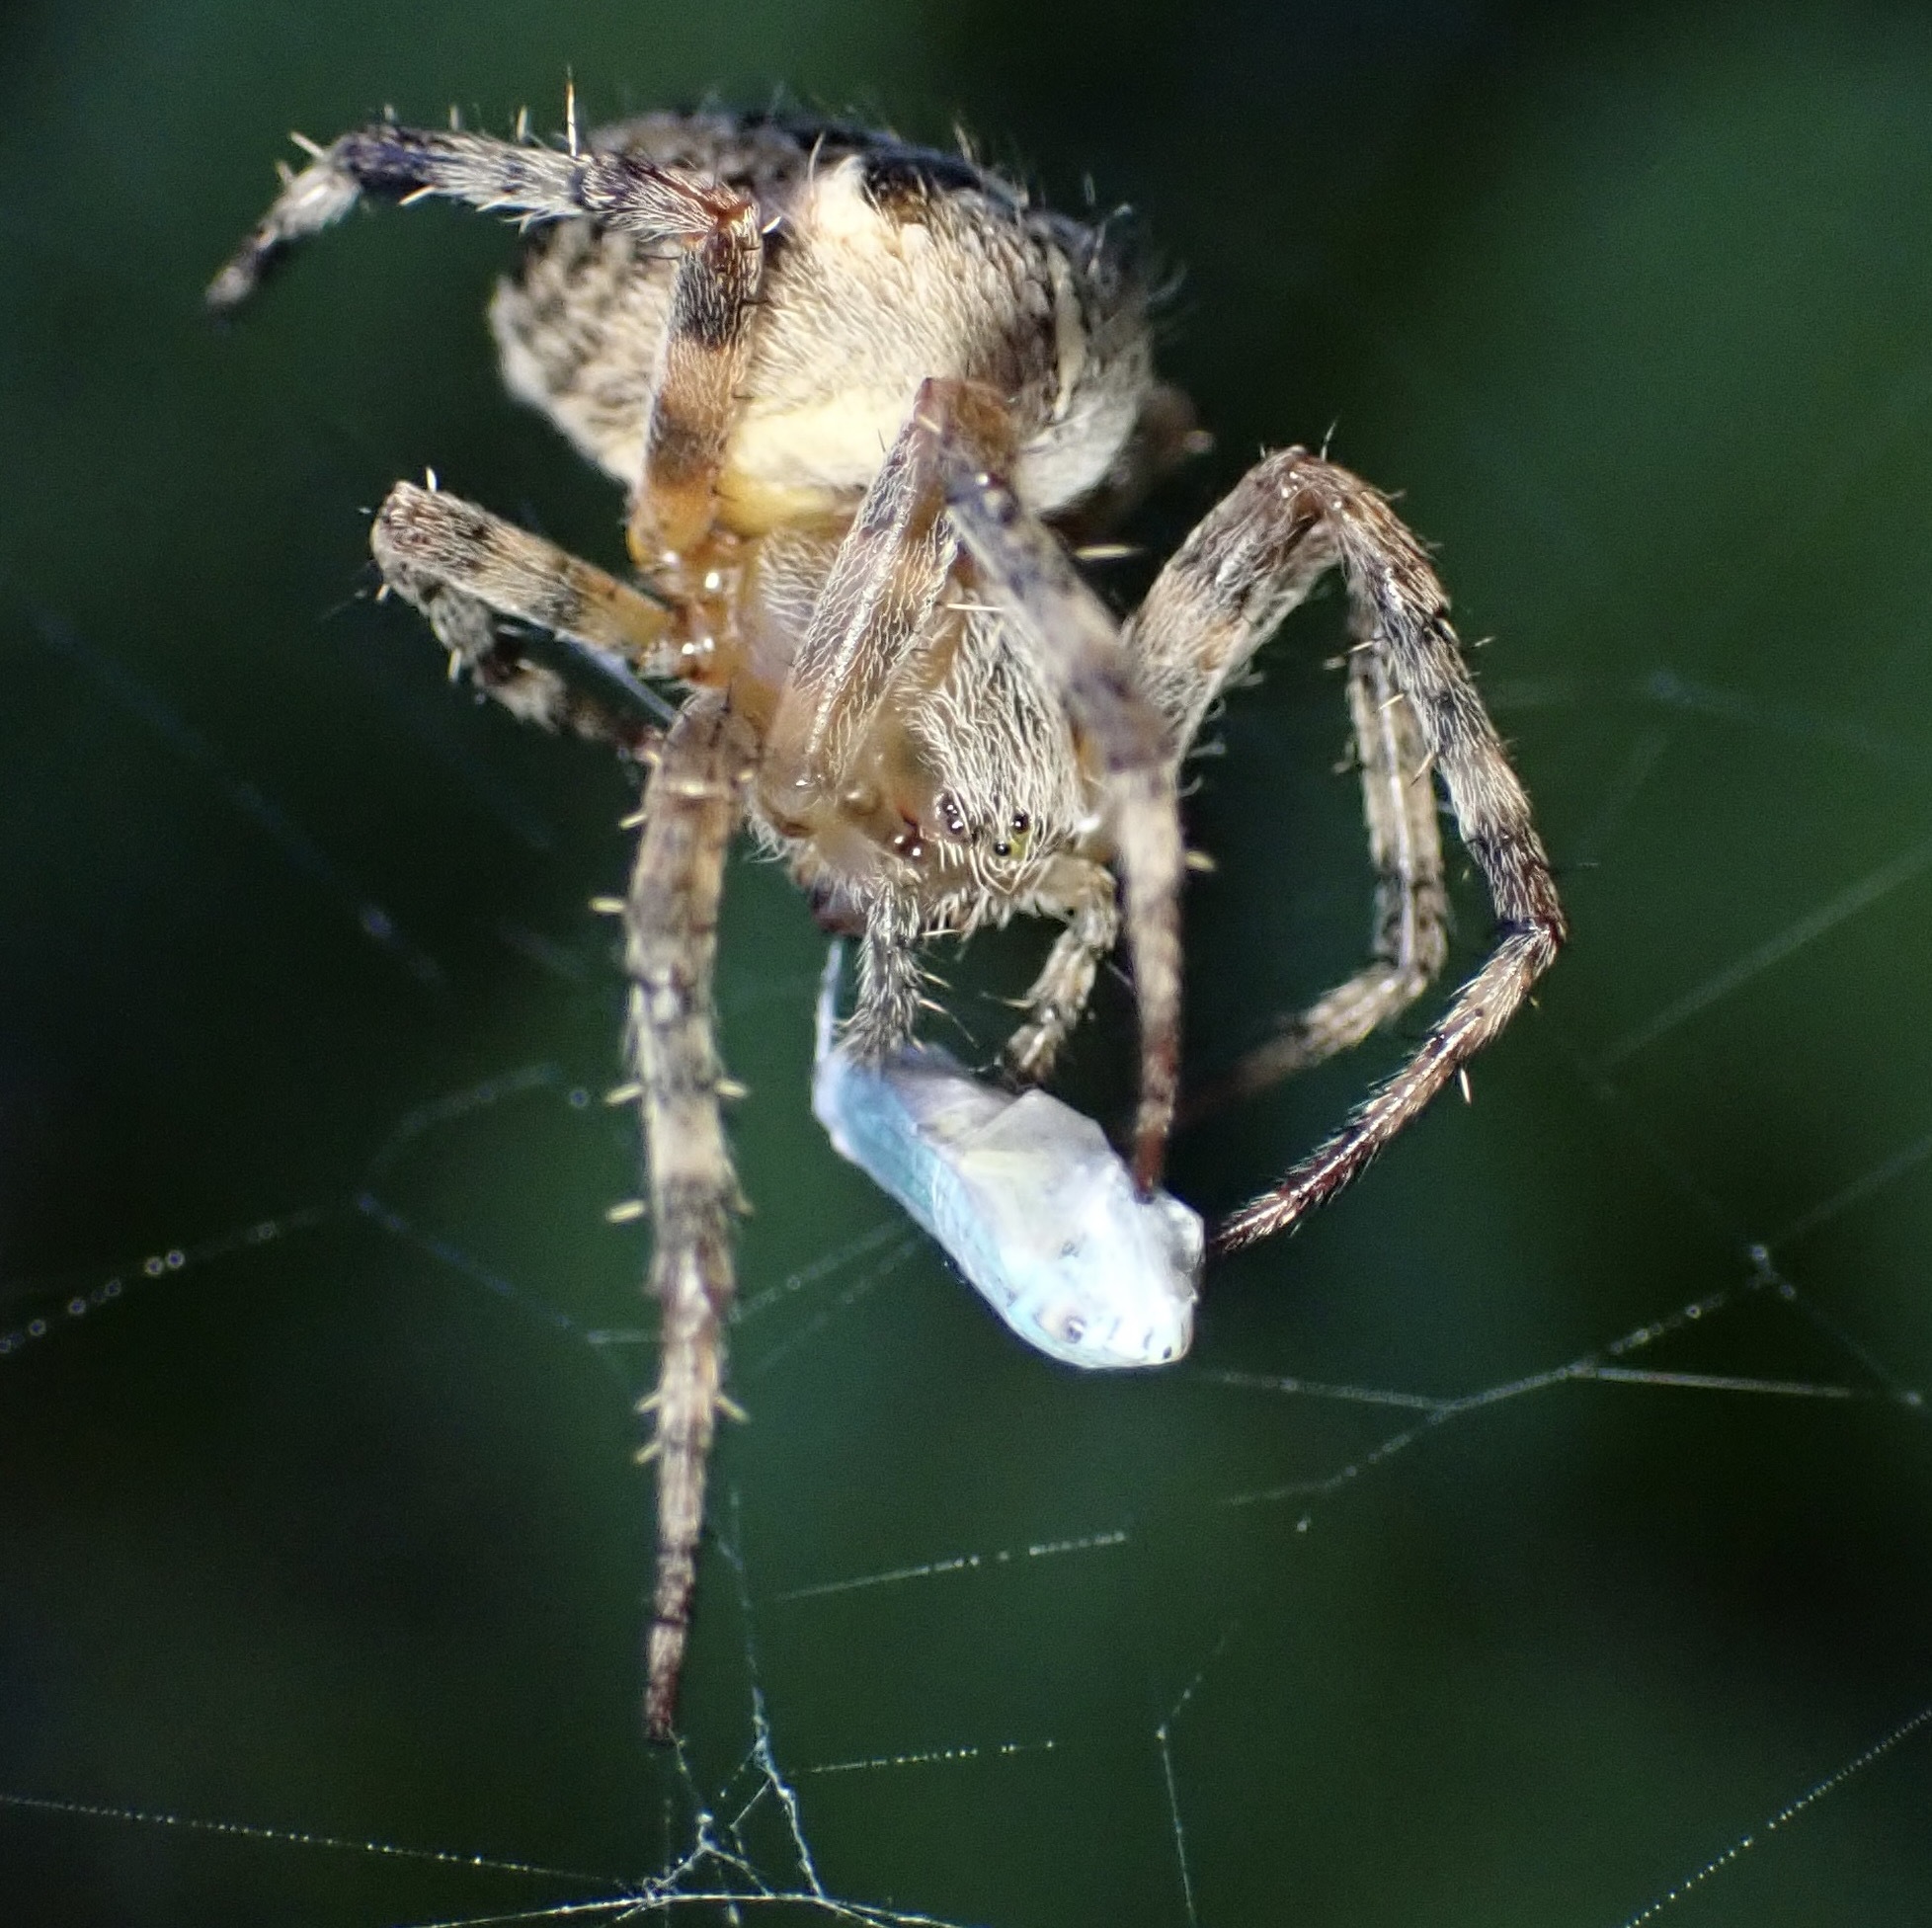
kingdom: Animalia
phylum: Arthropoda
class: Insecta
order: Hemiptera
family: Cicadellidae
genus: Graphocephala
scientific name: Graphocephala atropunctata
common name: Blue-green sharpshooter
